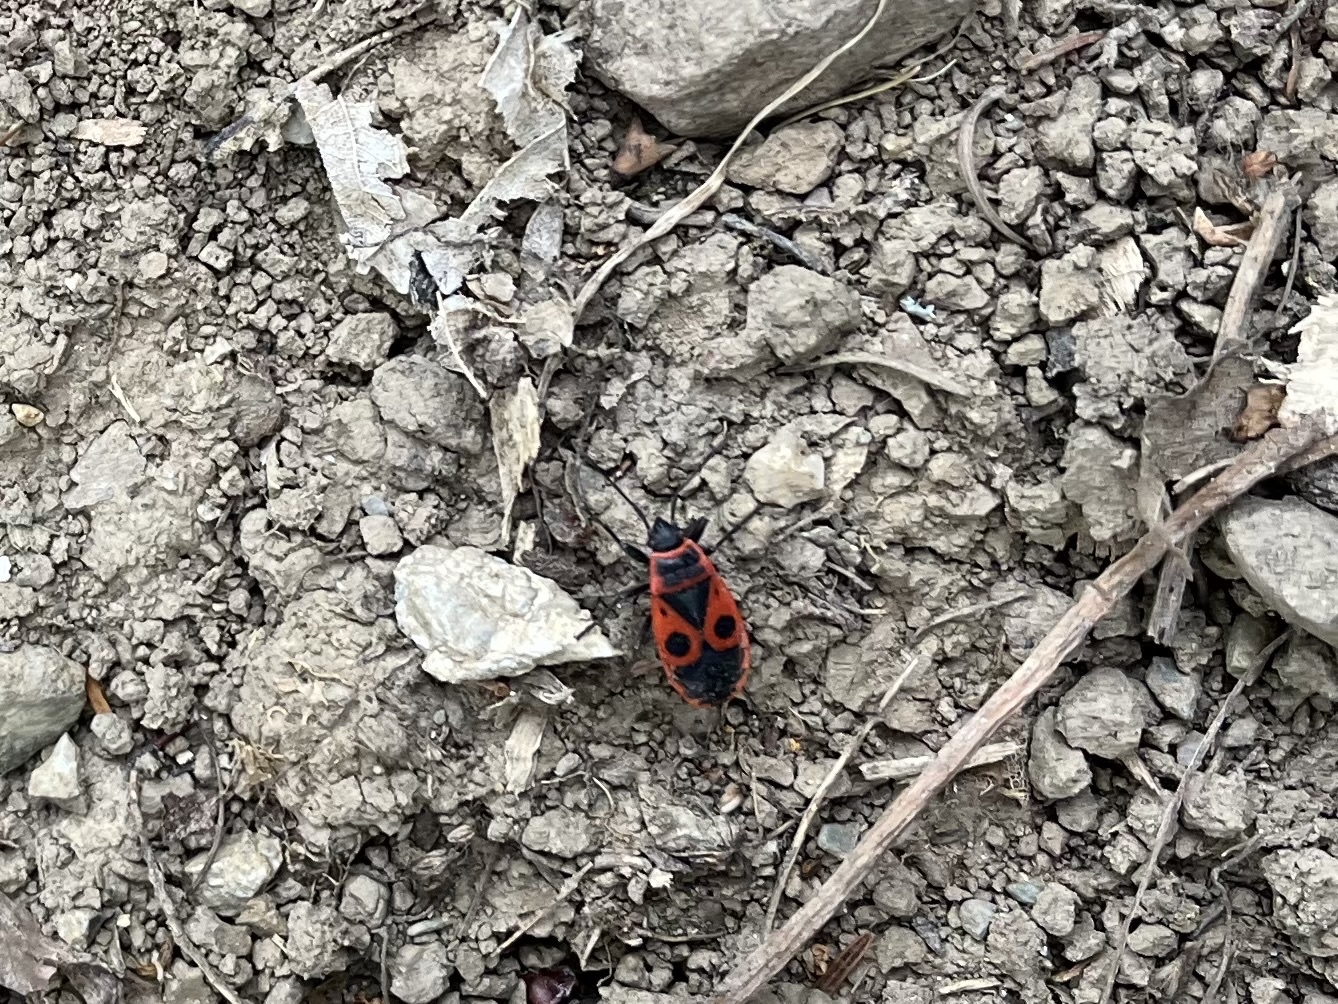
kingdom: Animalia
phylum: Arthropoda
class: Insecta
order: Hemiptera
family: Pyrrhocoridae
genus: Pyrrhocoris
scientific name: Pyrrhocoris apterus
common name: Firebug
